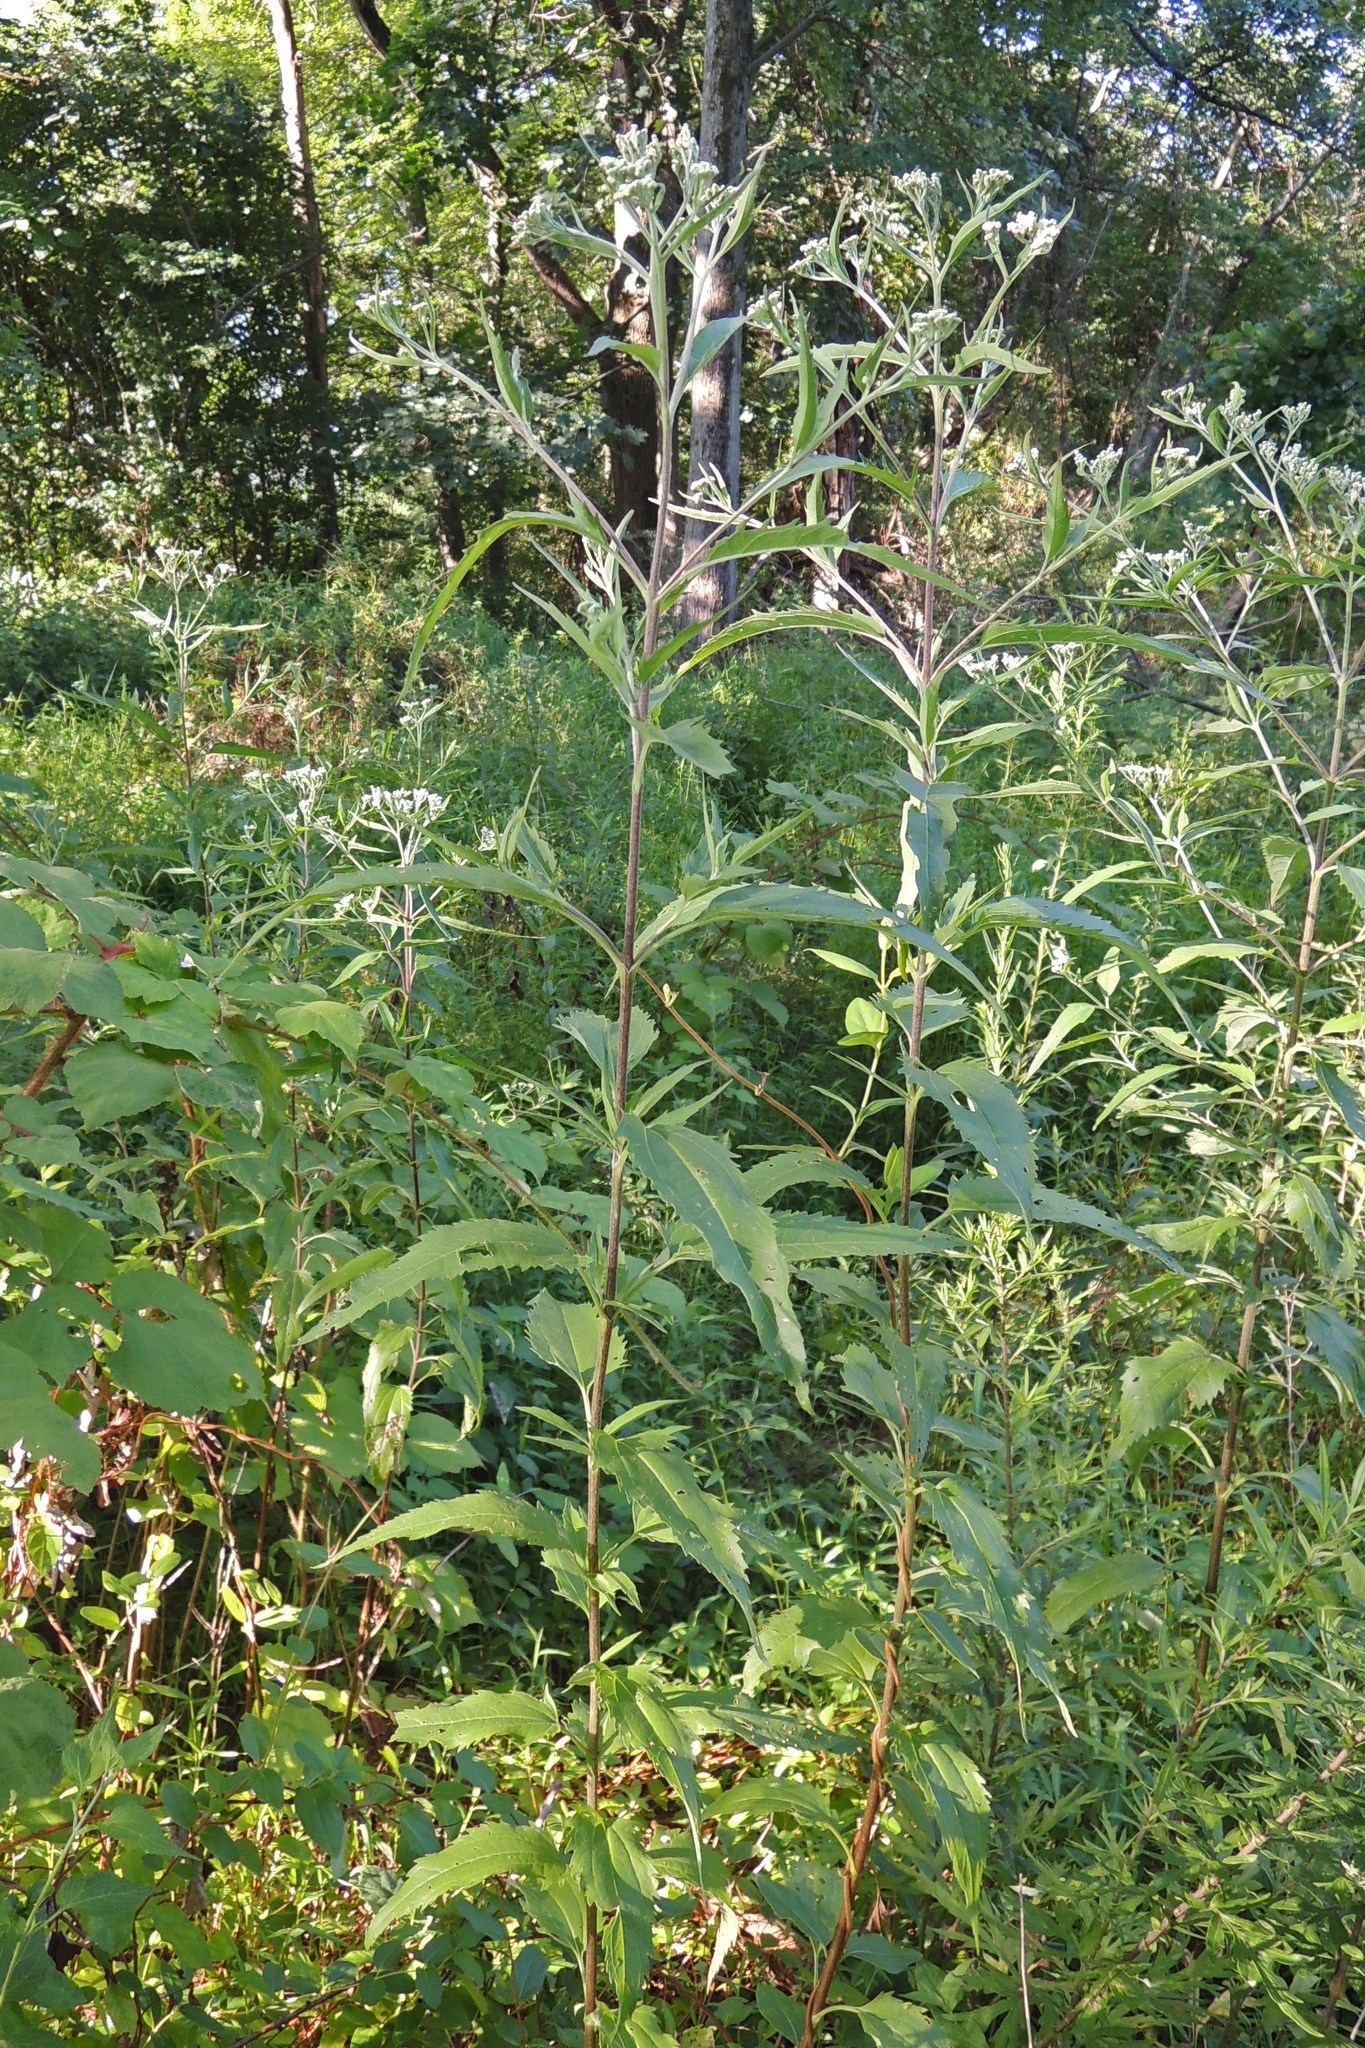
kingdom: Plantae
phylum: Tracheophyta
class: Magnoliopsida
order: Asterales
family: Asteraceae
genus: Eupatorium
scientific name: Eupatorium serotinum
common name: Late boneset
